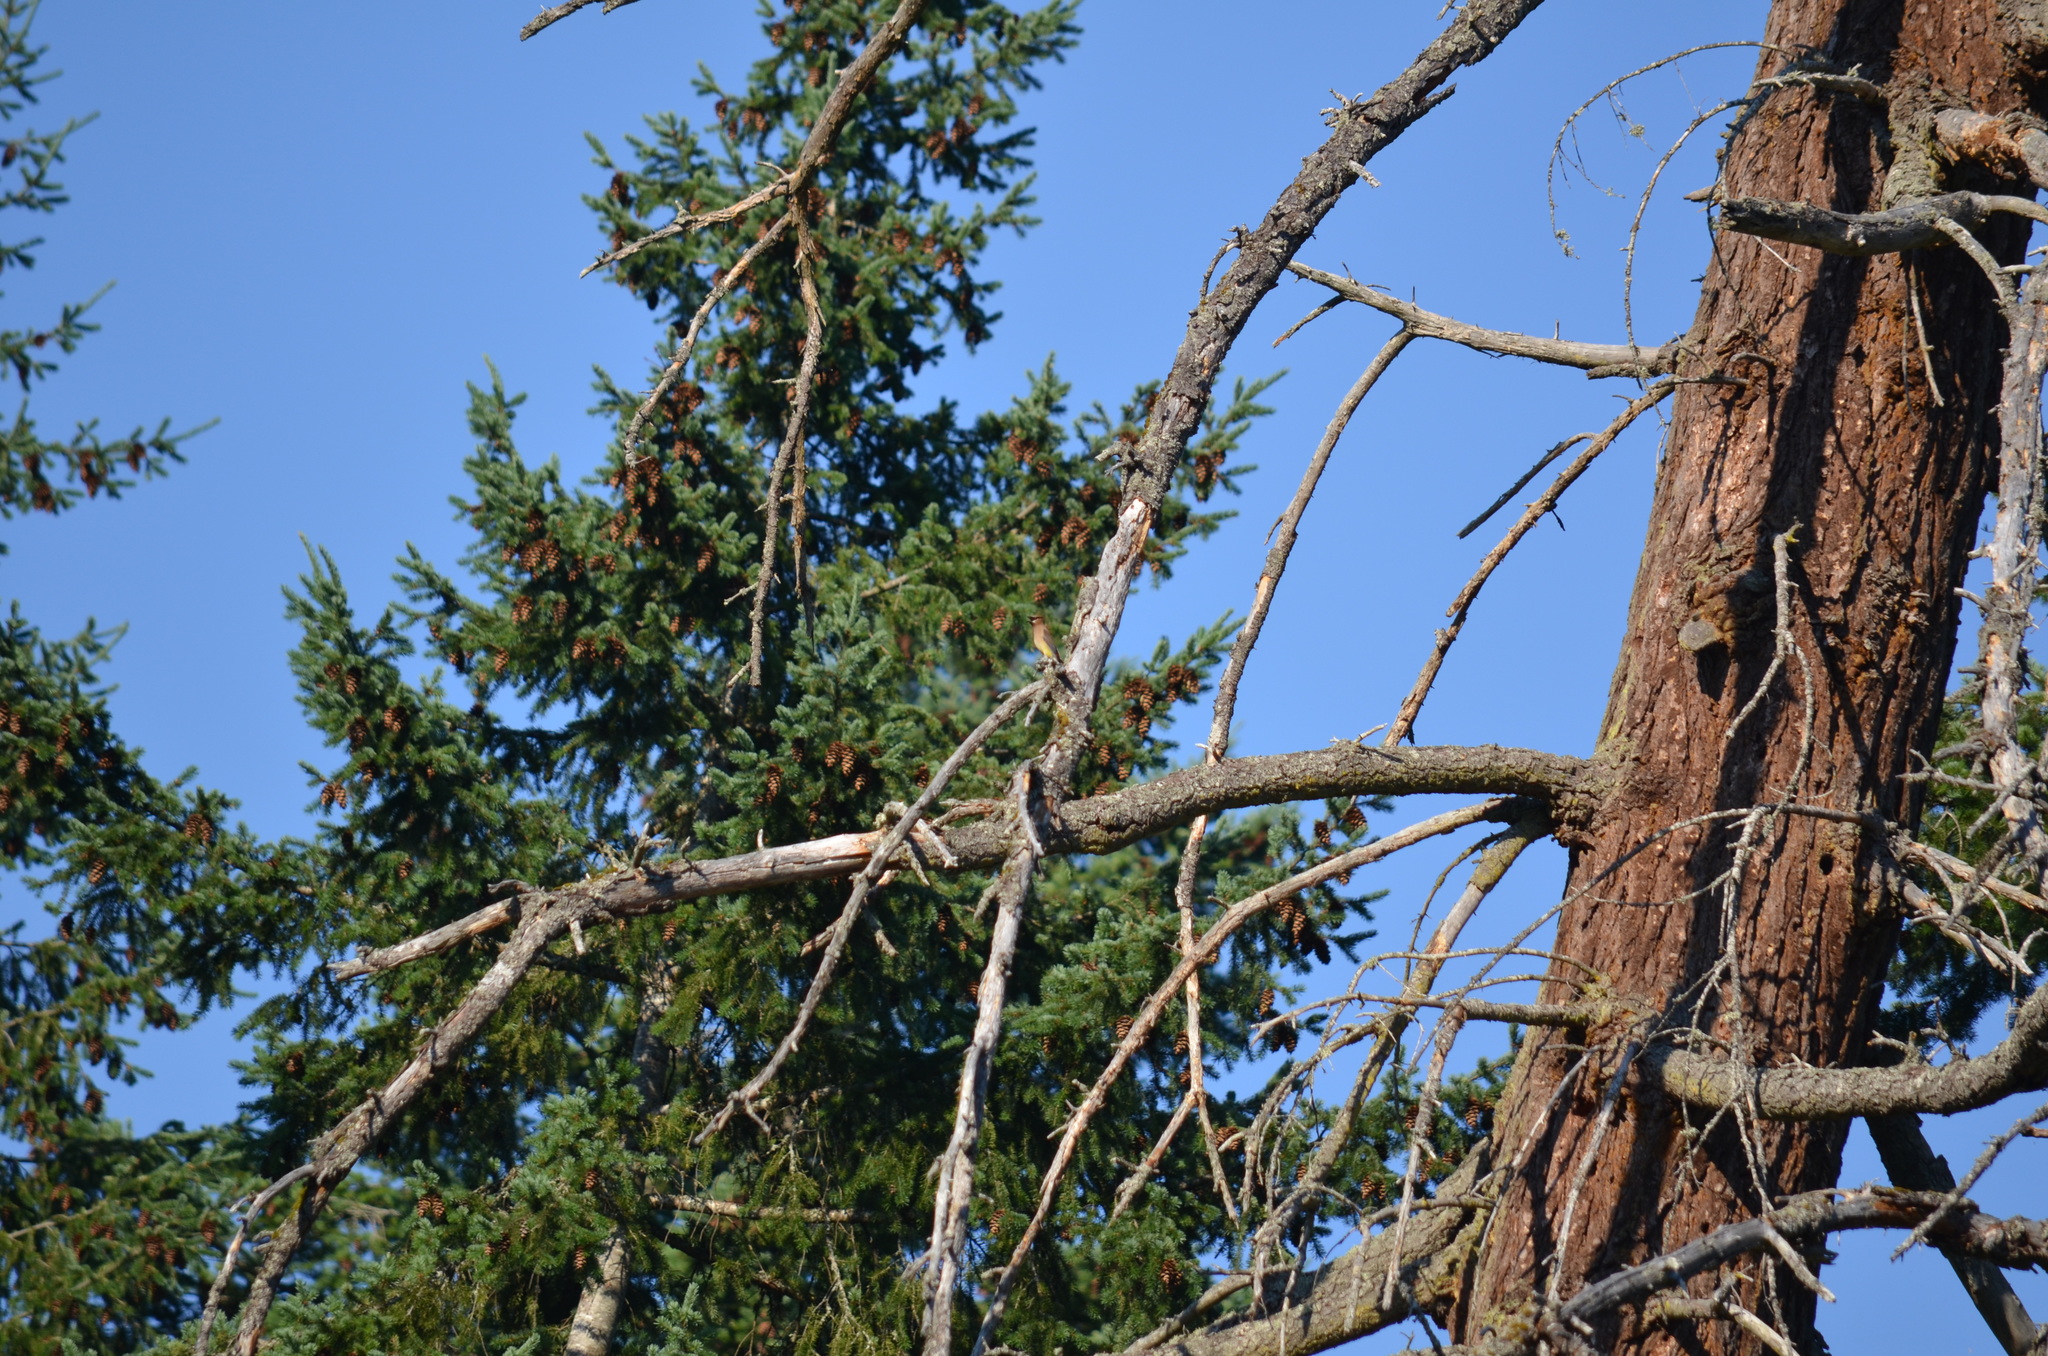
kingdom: Animalia
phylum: Chordata
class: Aves
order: Passeriformes
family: Bombycillidae
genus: Bombycilla
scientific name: Bombycilla cedrorum
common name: Cedar waxwing
